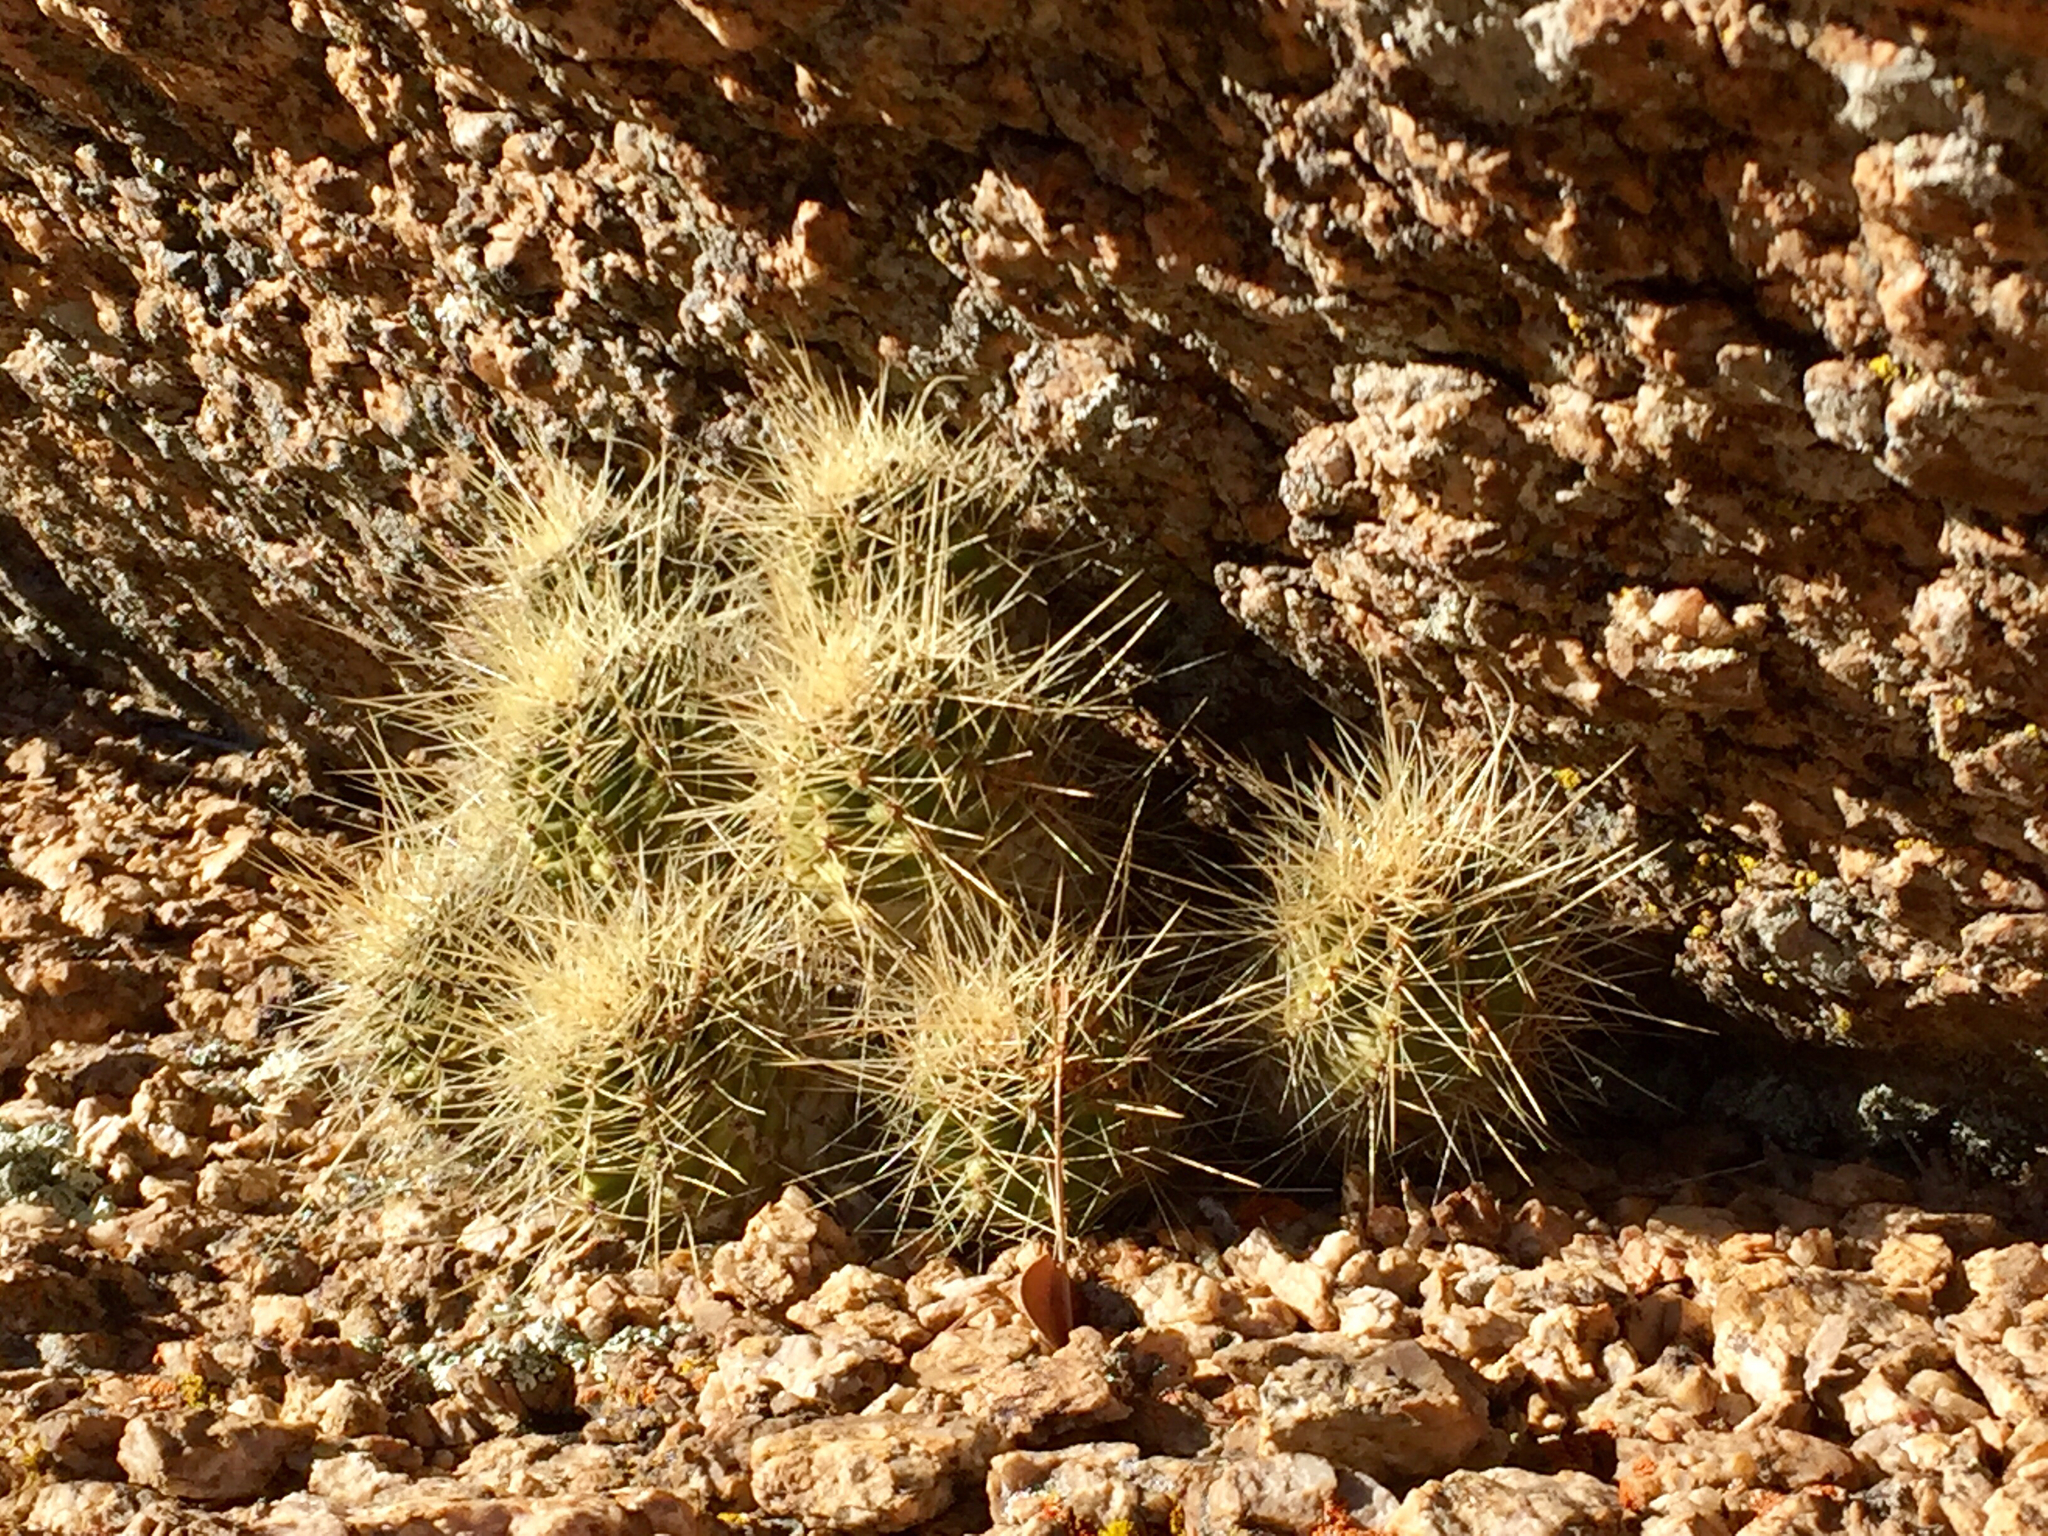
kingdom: Plantae
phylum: Tracheophyta
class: Magnoliopsida
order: Caryophyllales
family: Cactaceae
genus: Echinocereus
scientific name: Echinocereus bakeri
